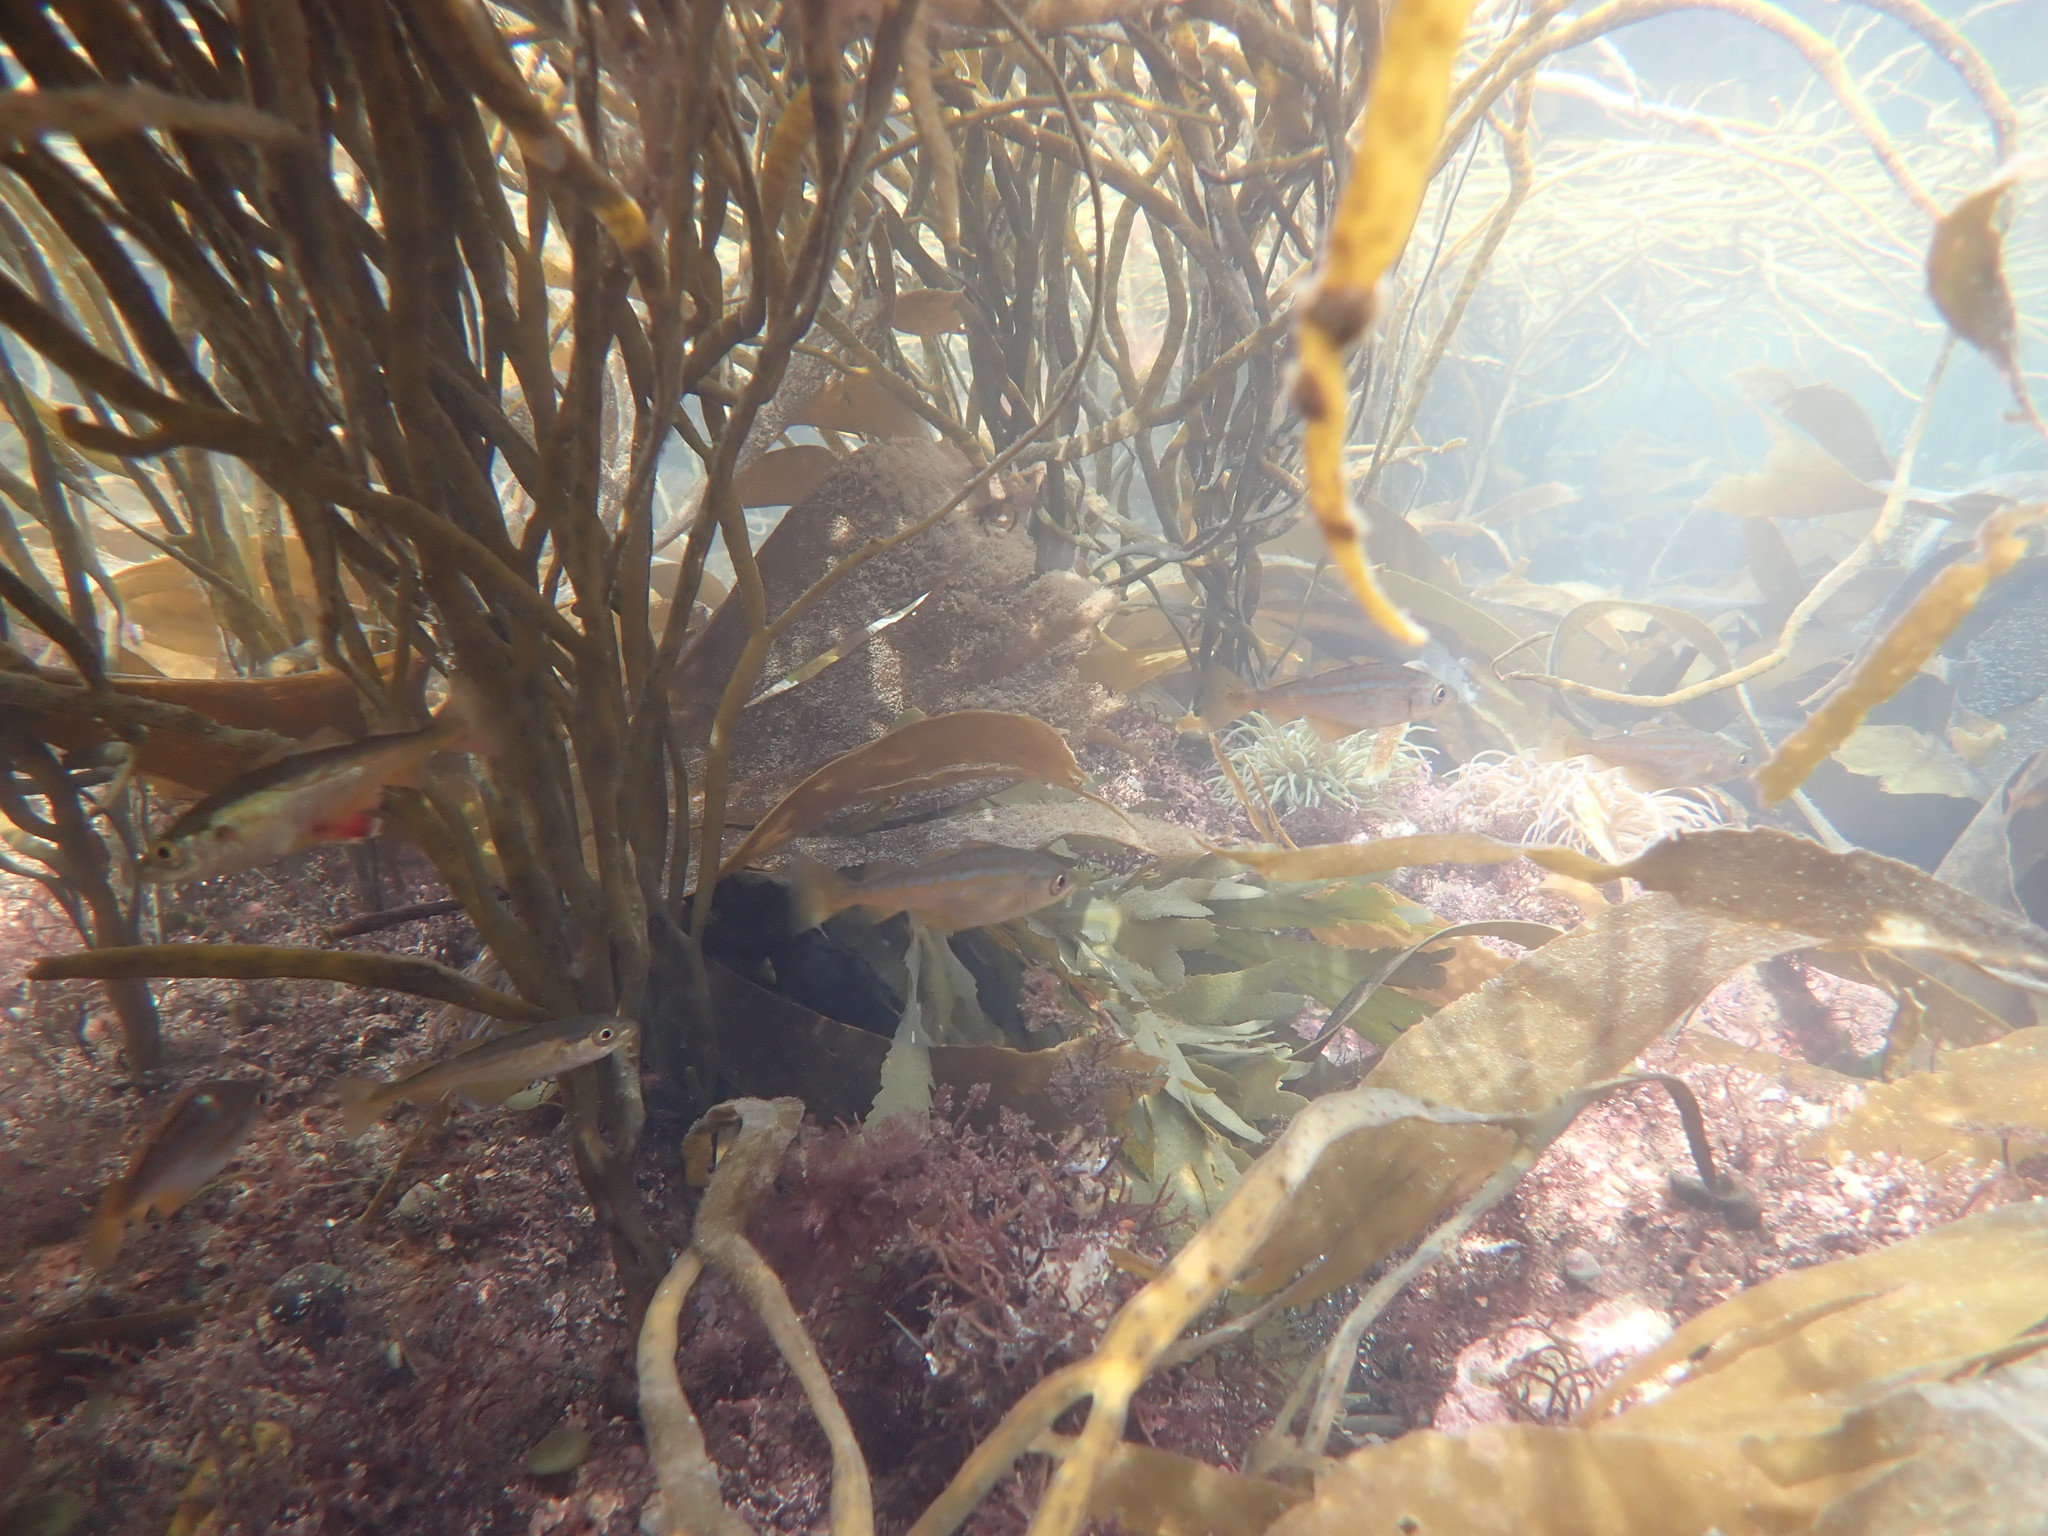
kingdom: Animalia
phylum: Chordata
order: Gadiformes
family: Gadidae
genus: Pollachius
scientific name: Pollachius pollachius
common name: Pollack
